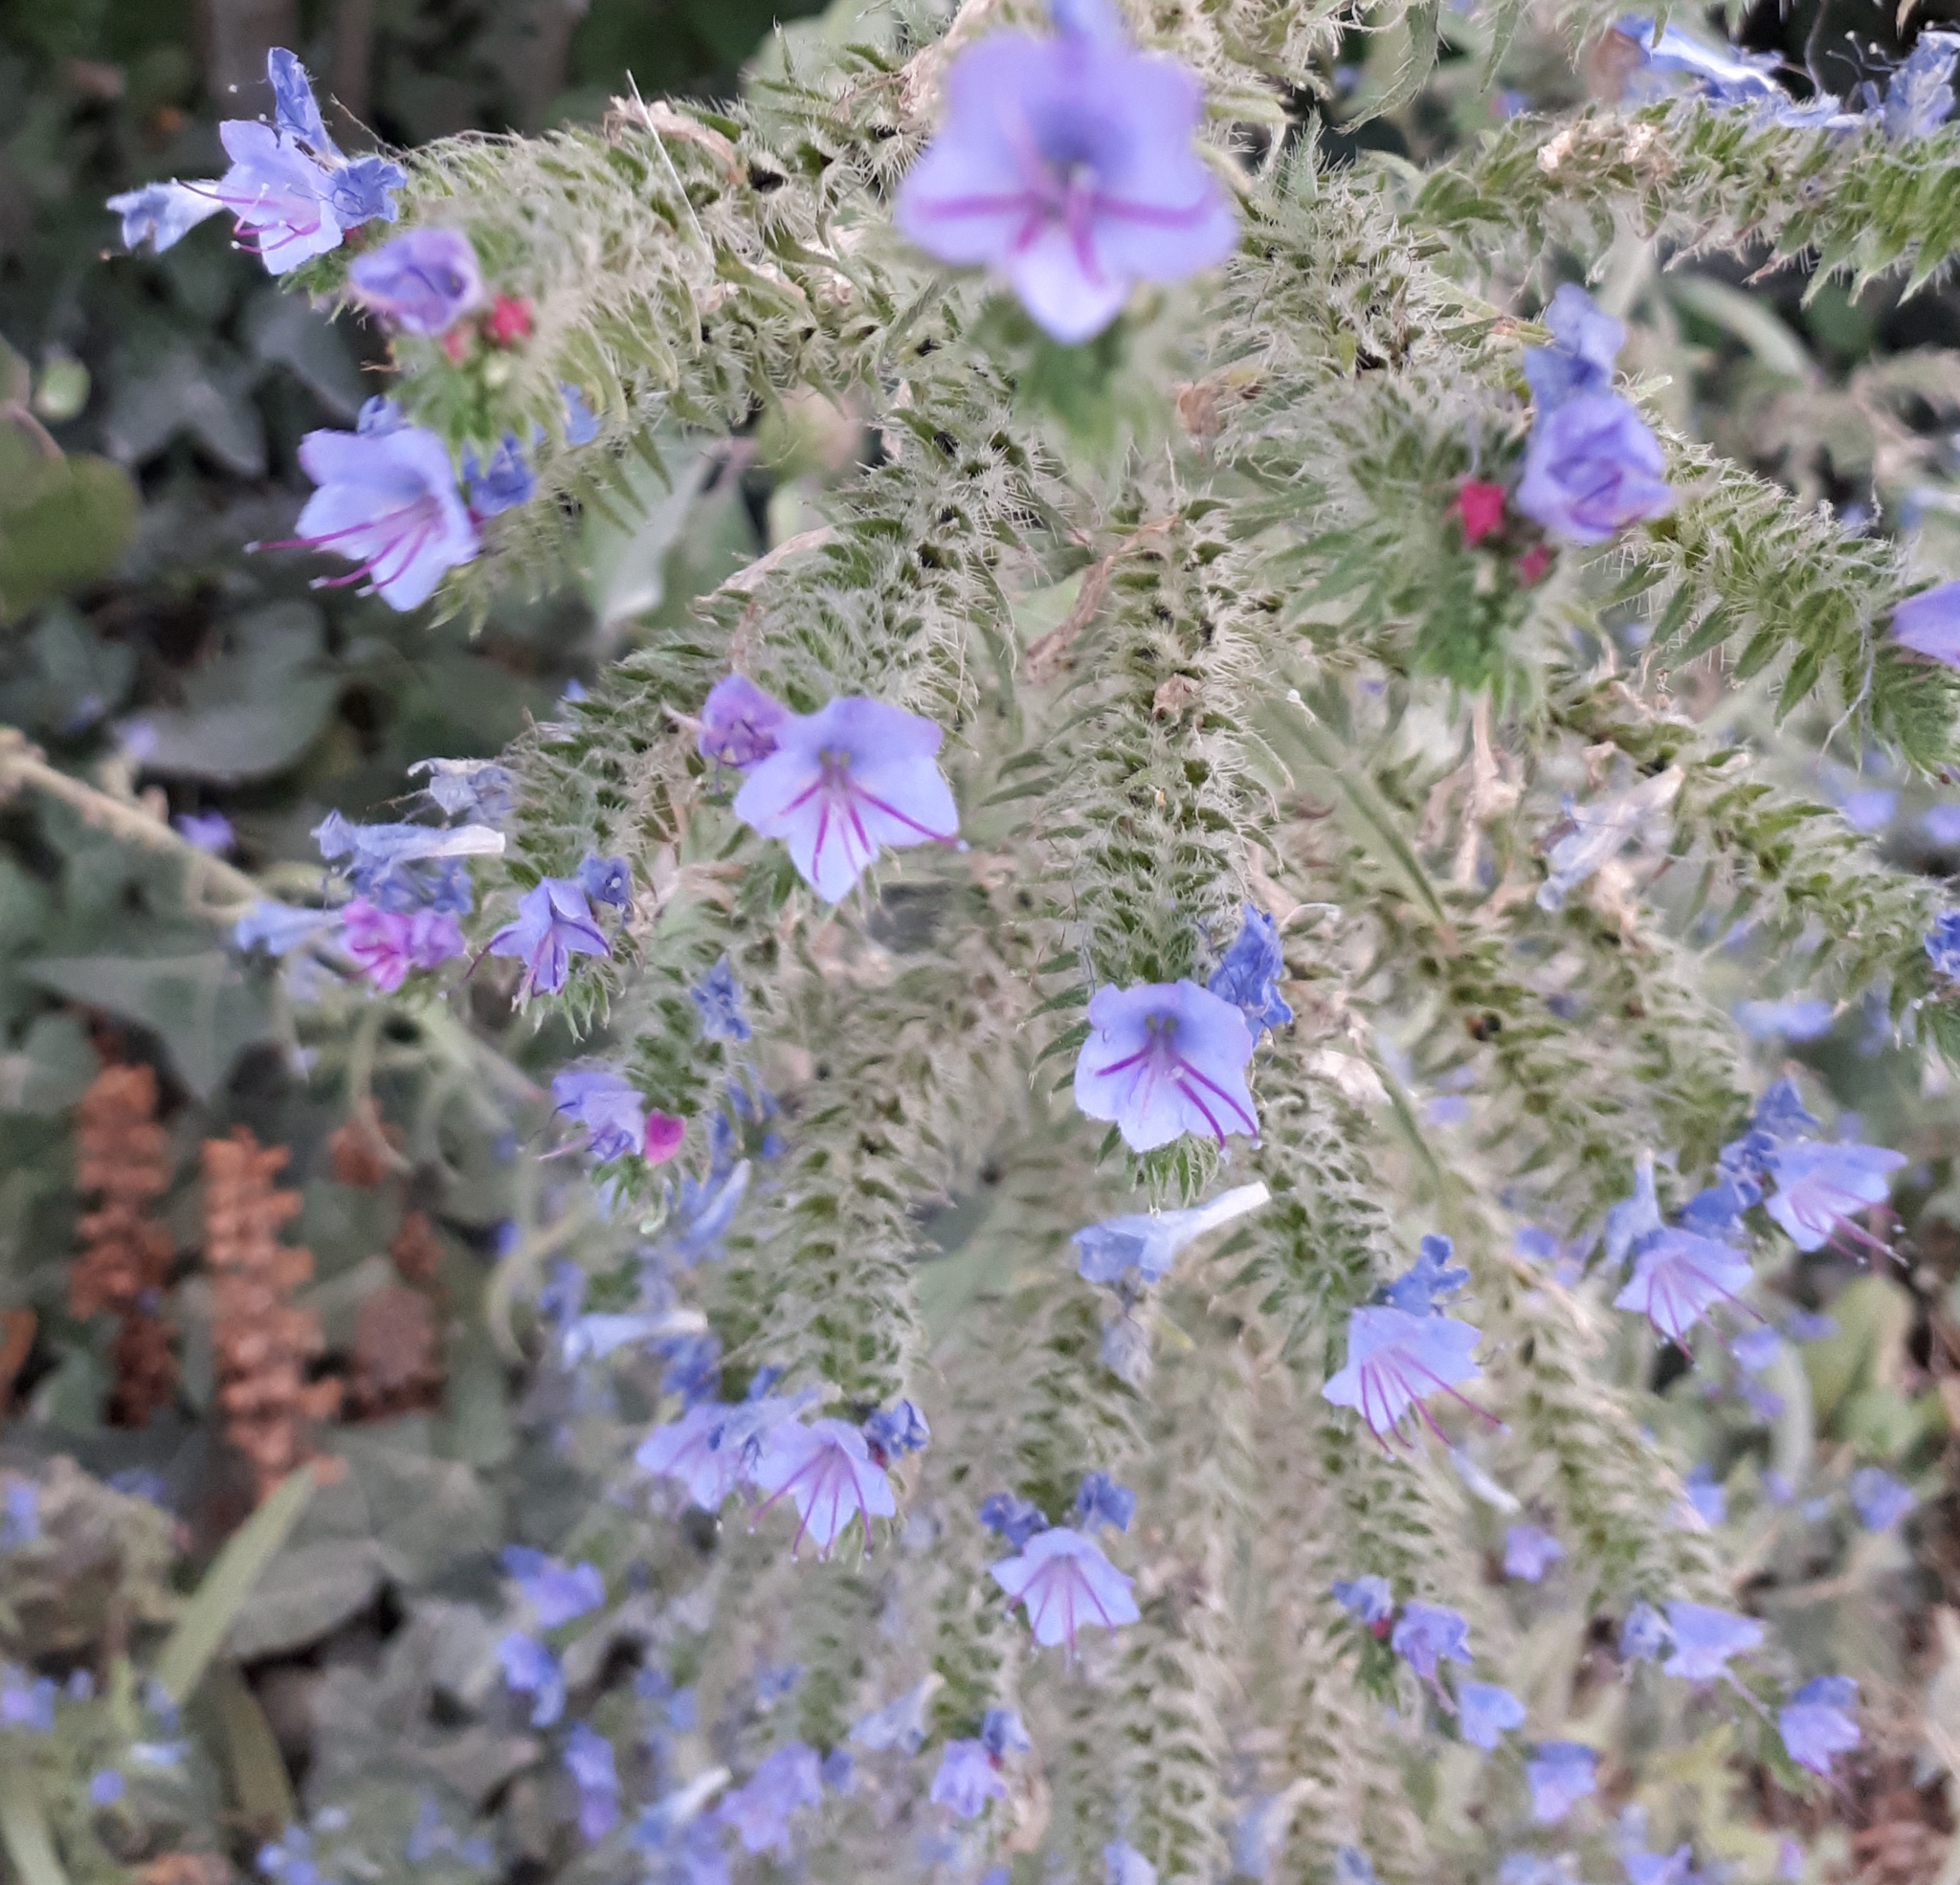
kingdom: Plantae
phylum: Tracheophyta
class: Magnoliopsida
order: Boraginales
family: Boraginaceae
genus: Echium
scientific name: Echium vulgare
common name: Common viper's bugloss
